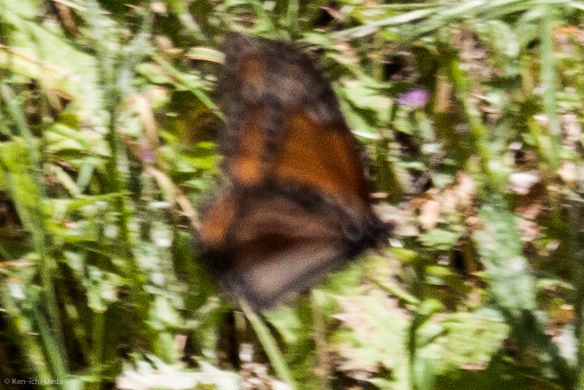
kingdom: Animalia
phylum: Arthropoda
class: Insecta
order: Lepidoptera
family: Nymphalidae
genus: Danaus
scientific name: Danaus plexippus
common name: Monarch
